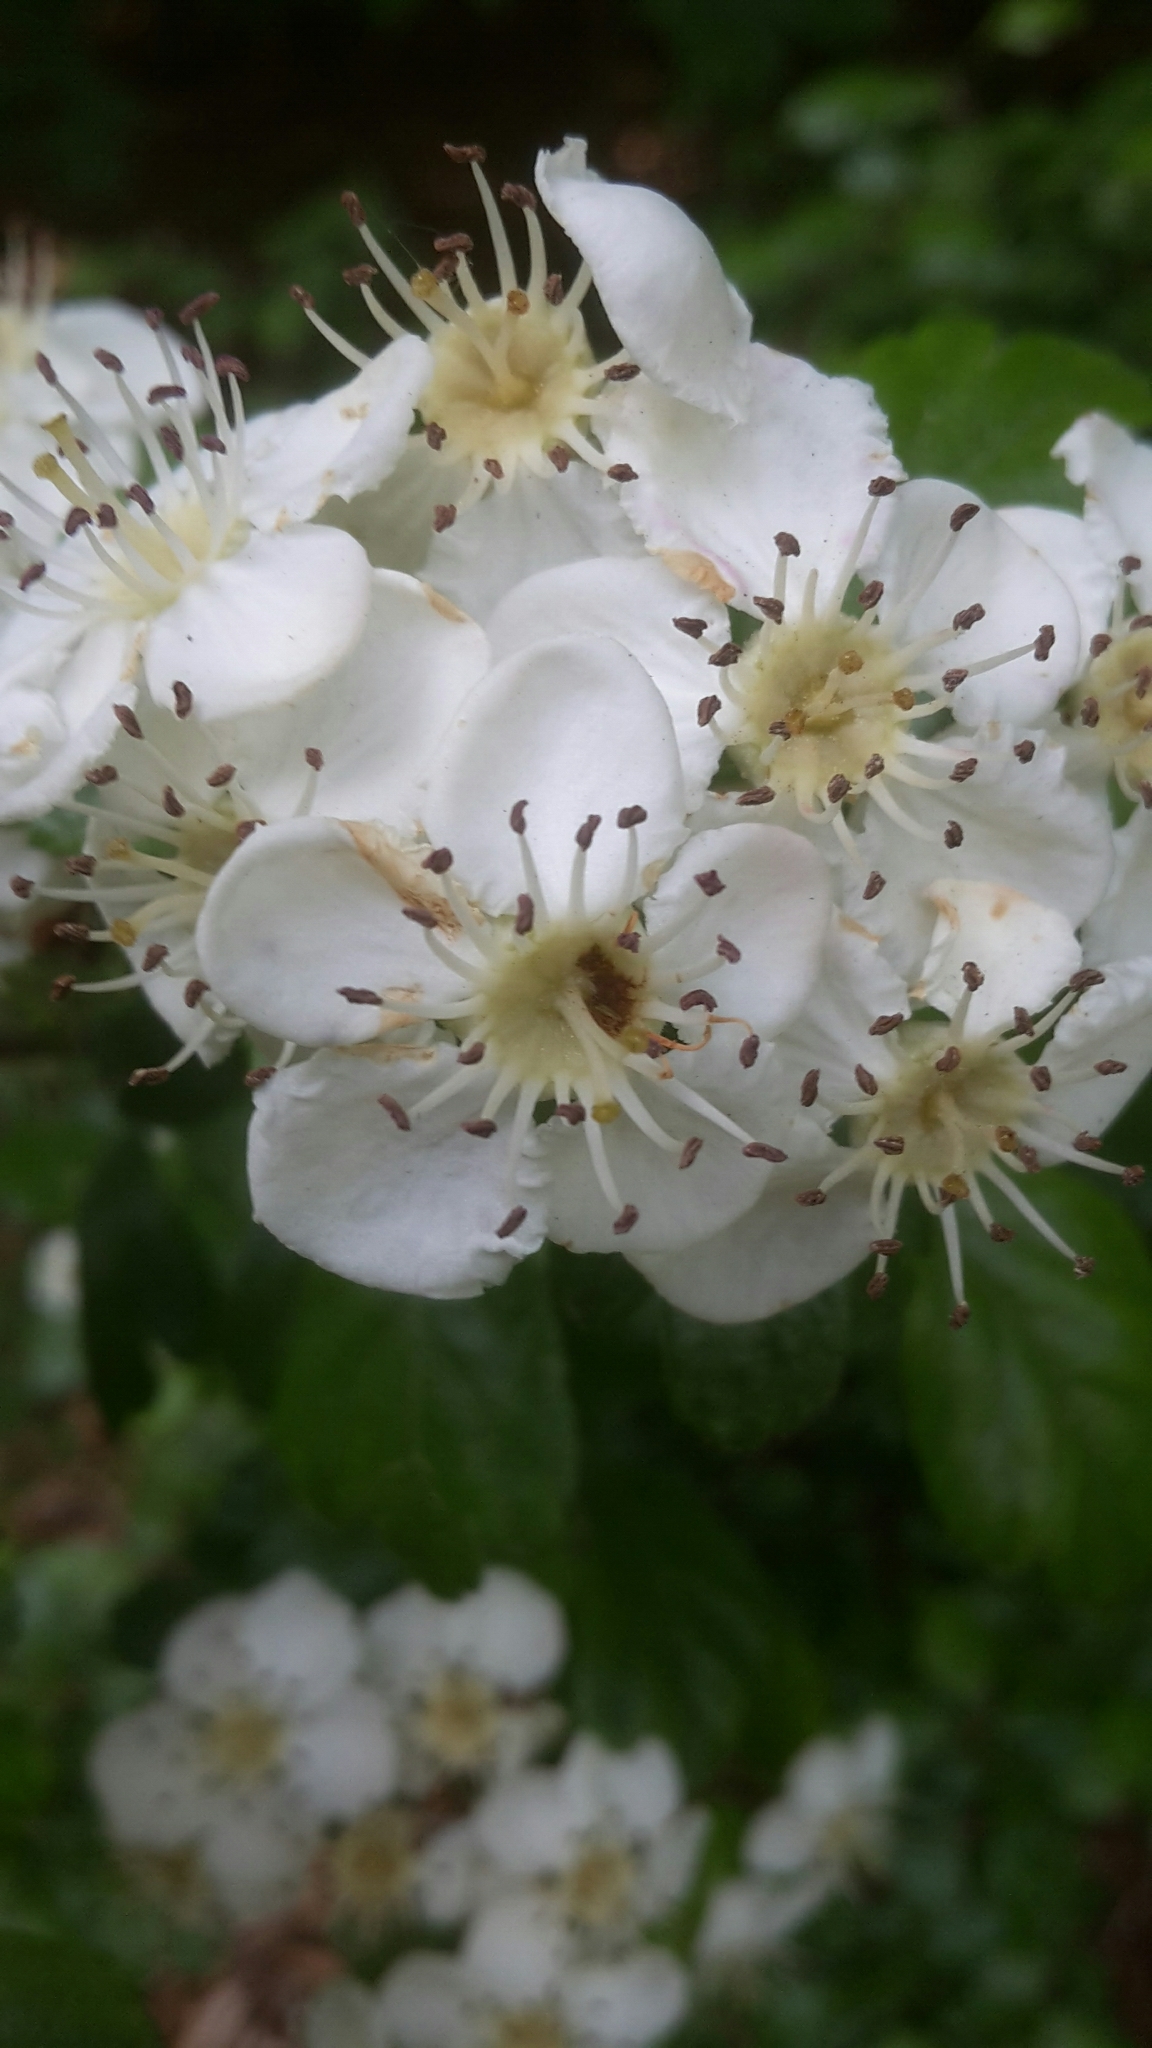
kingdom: Plantae
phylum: Tracheophyta
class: Magnoliopsida
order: Rosales
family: Rosaceae
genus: Crataegus
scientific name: Crataegus laevigata
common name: Midland hawthorn
